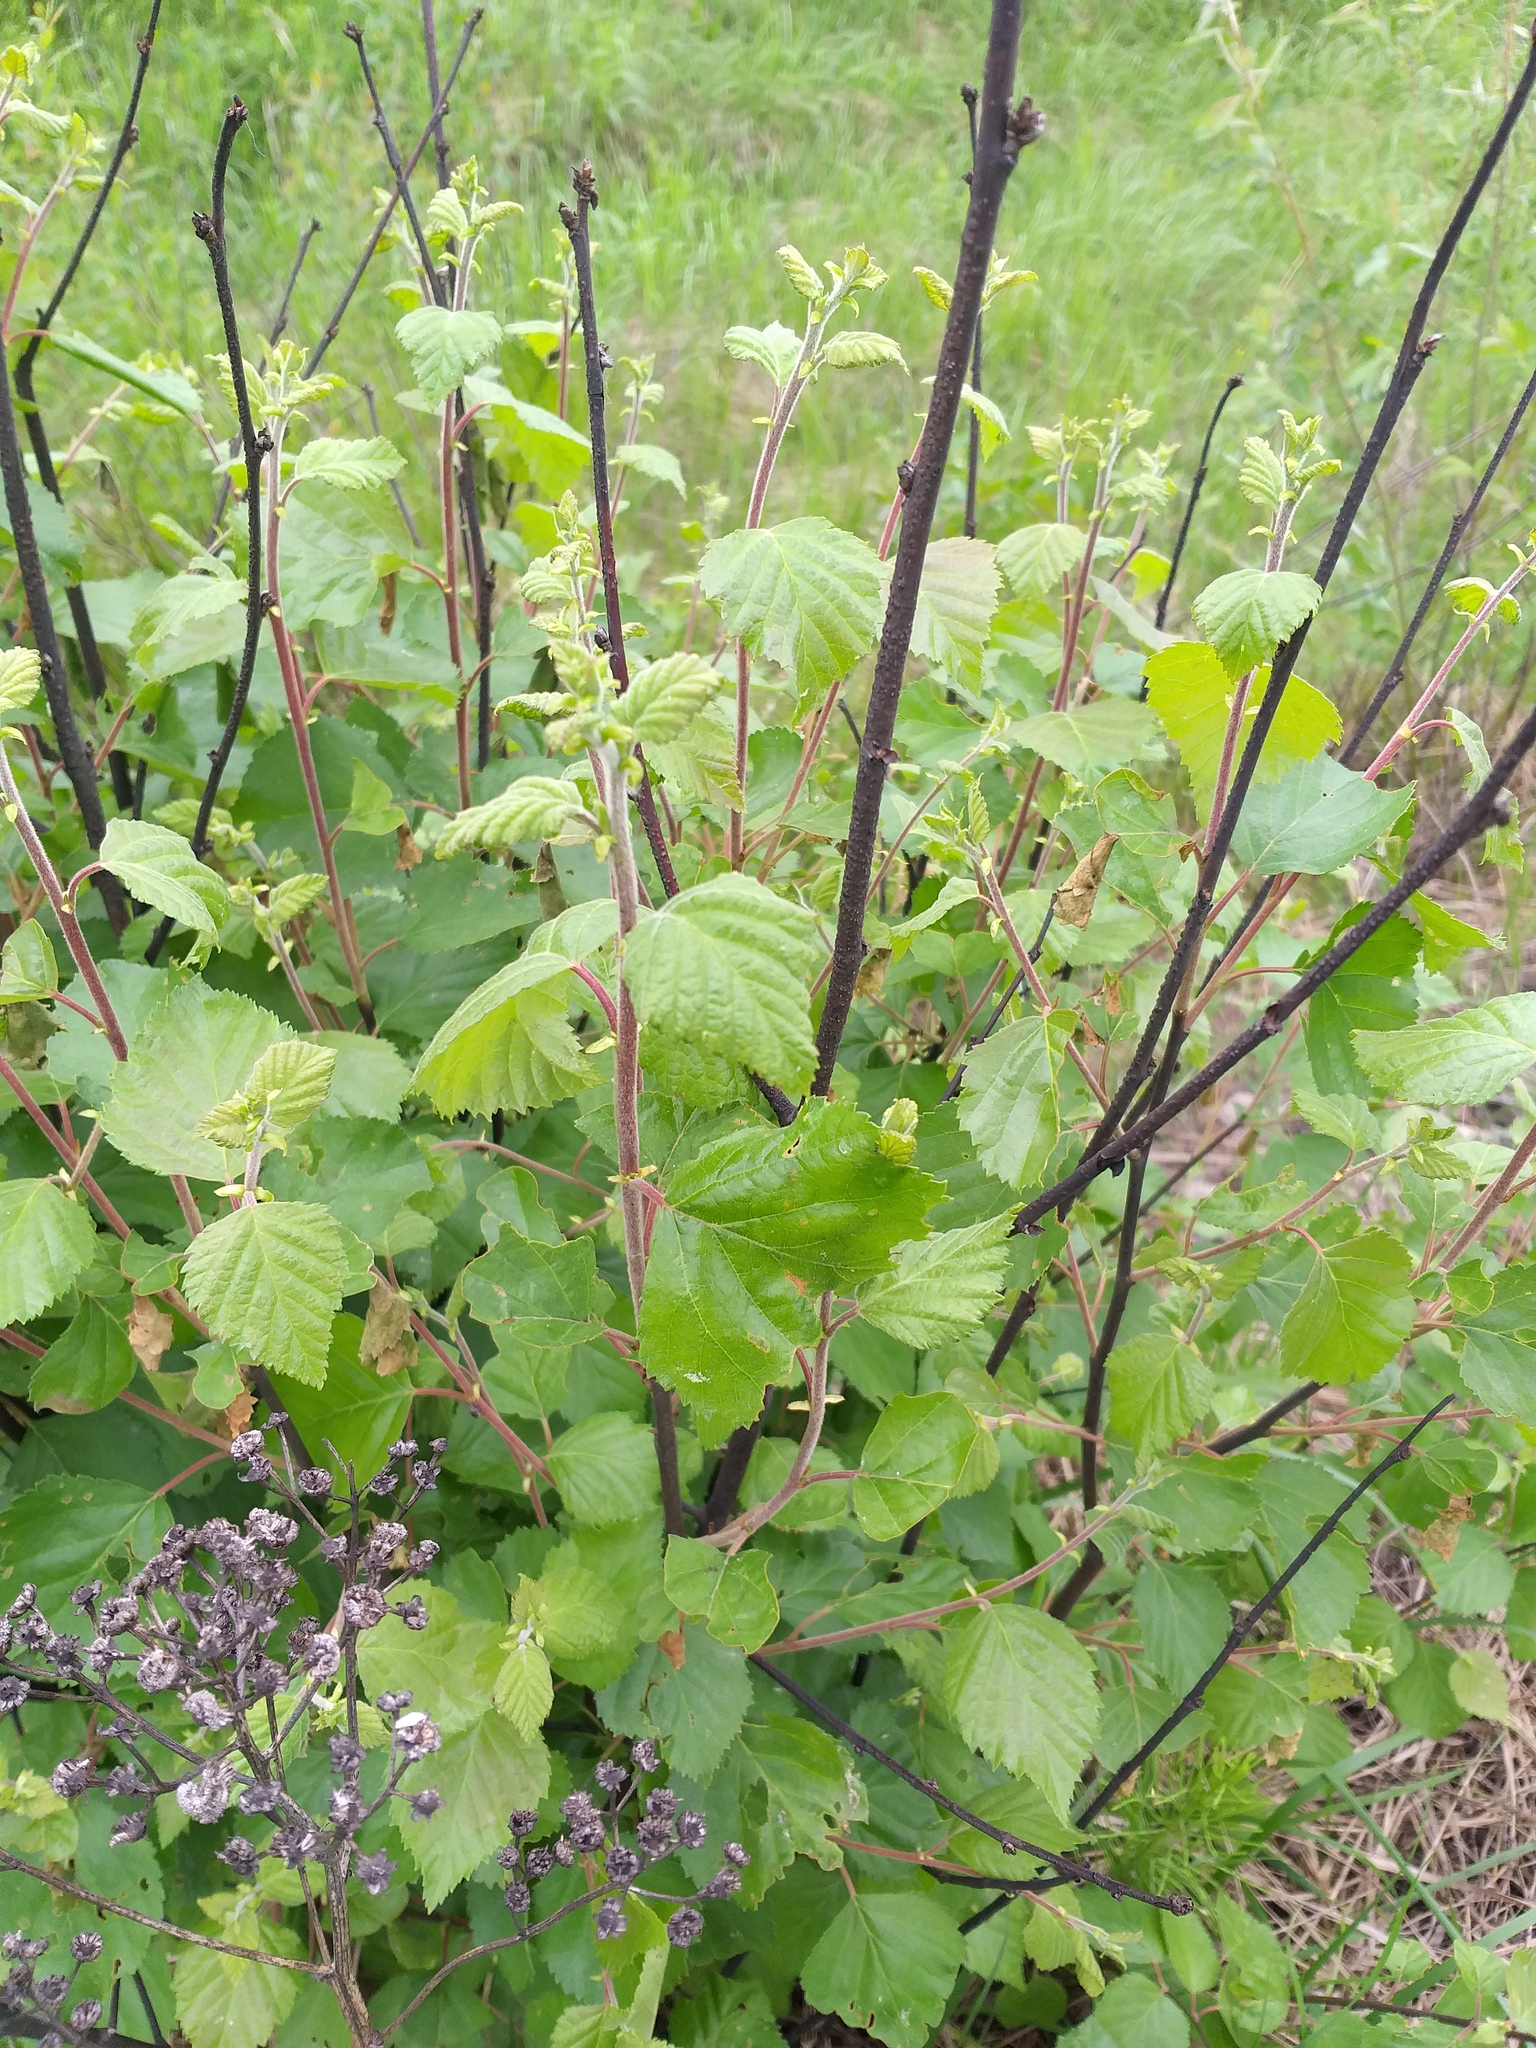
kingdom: Plantae
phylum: Tracheophyta
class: Magnoliopsida
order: Fagales
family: Betulaceae
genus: Betula
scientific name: Betula pubescens
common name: Downy birch
